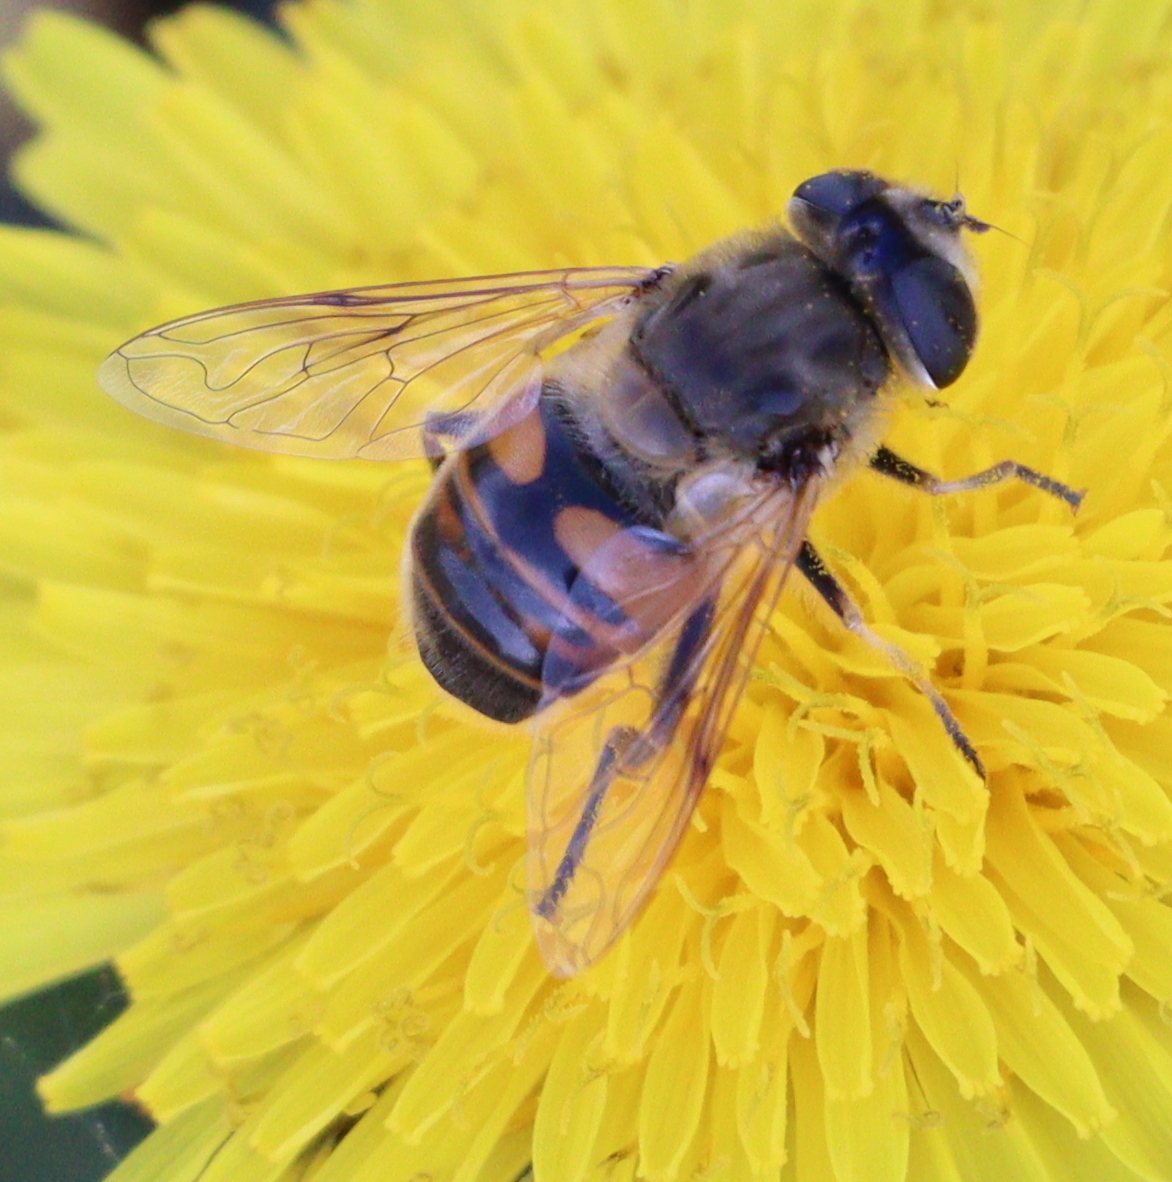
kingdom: Animalia
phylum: Arthropoda
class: Insecta
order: Diptera
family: Syrphidae
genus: Eristalis
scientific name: Eristalis tenax
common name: Drone fly
